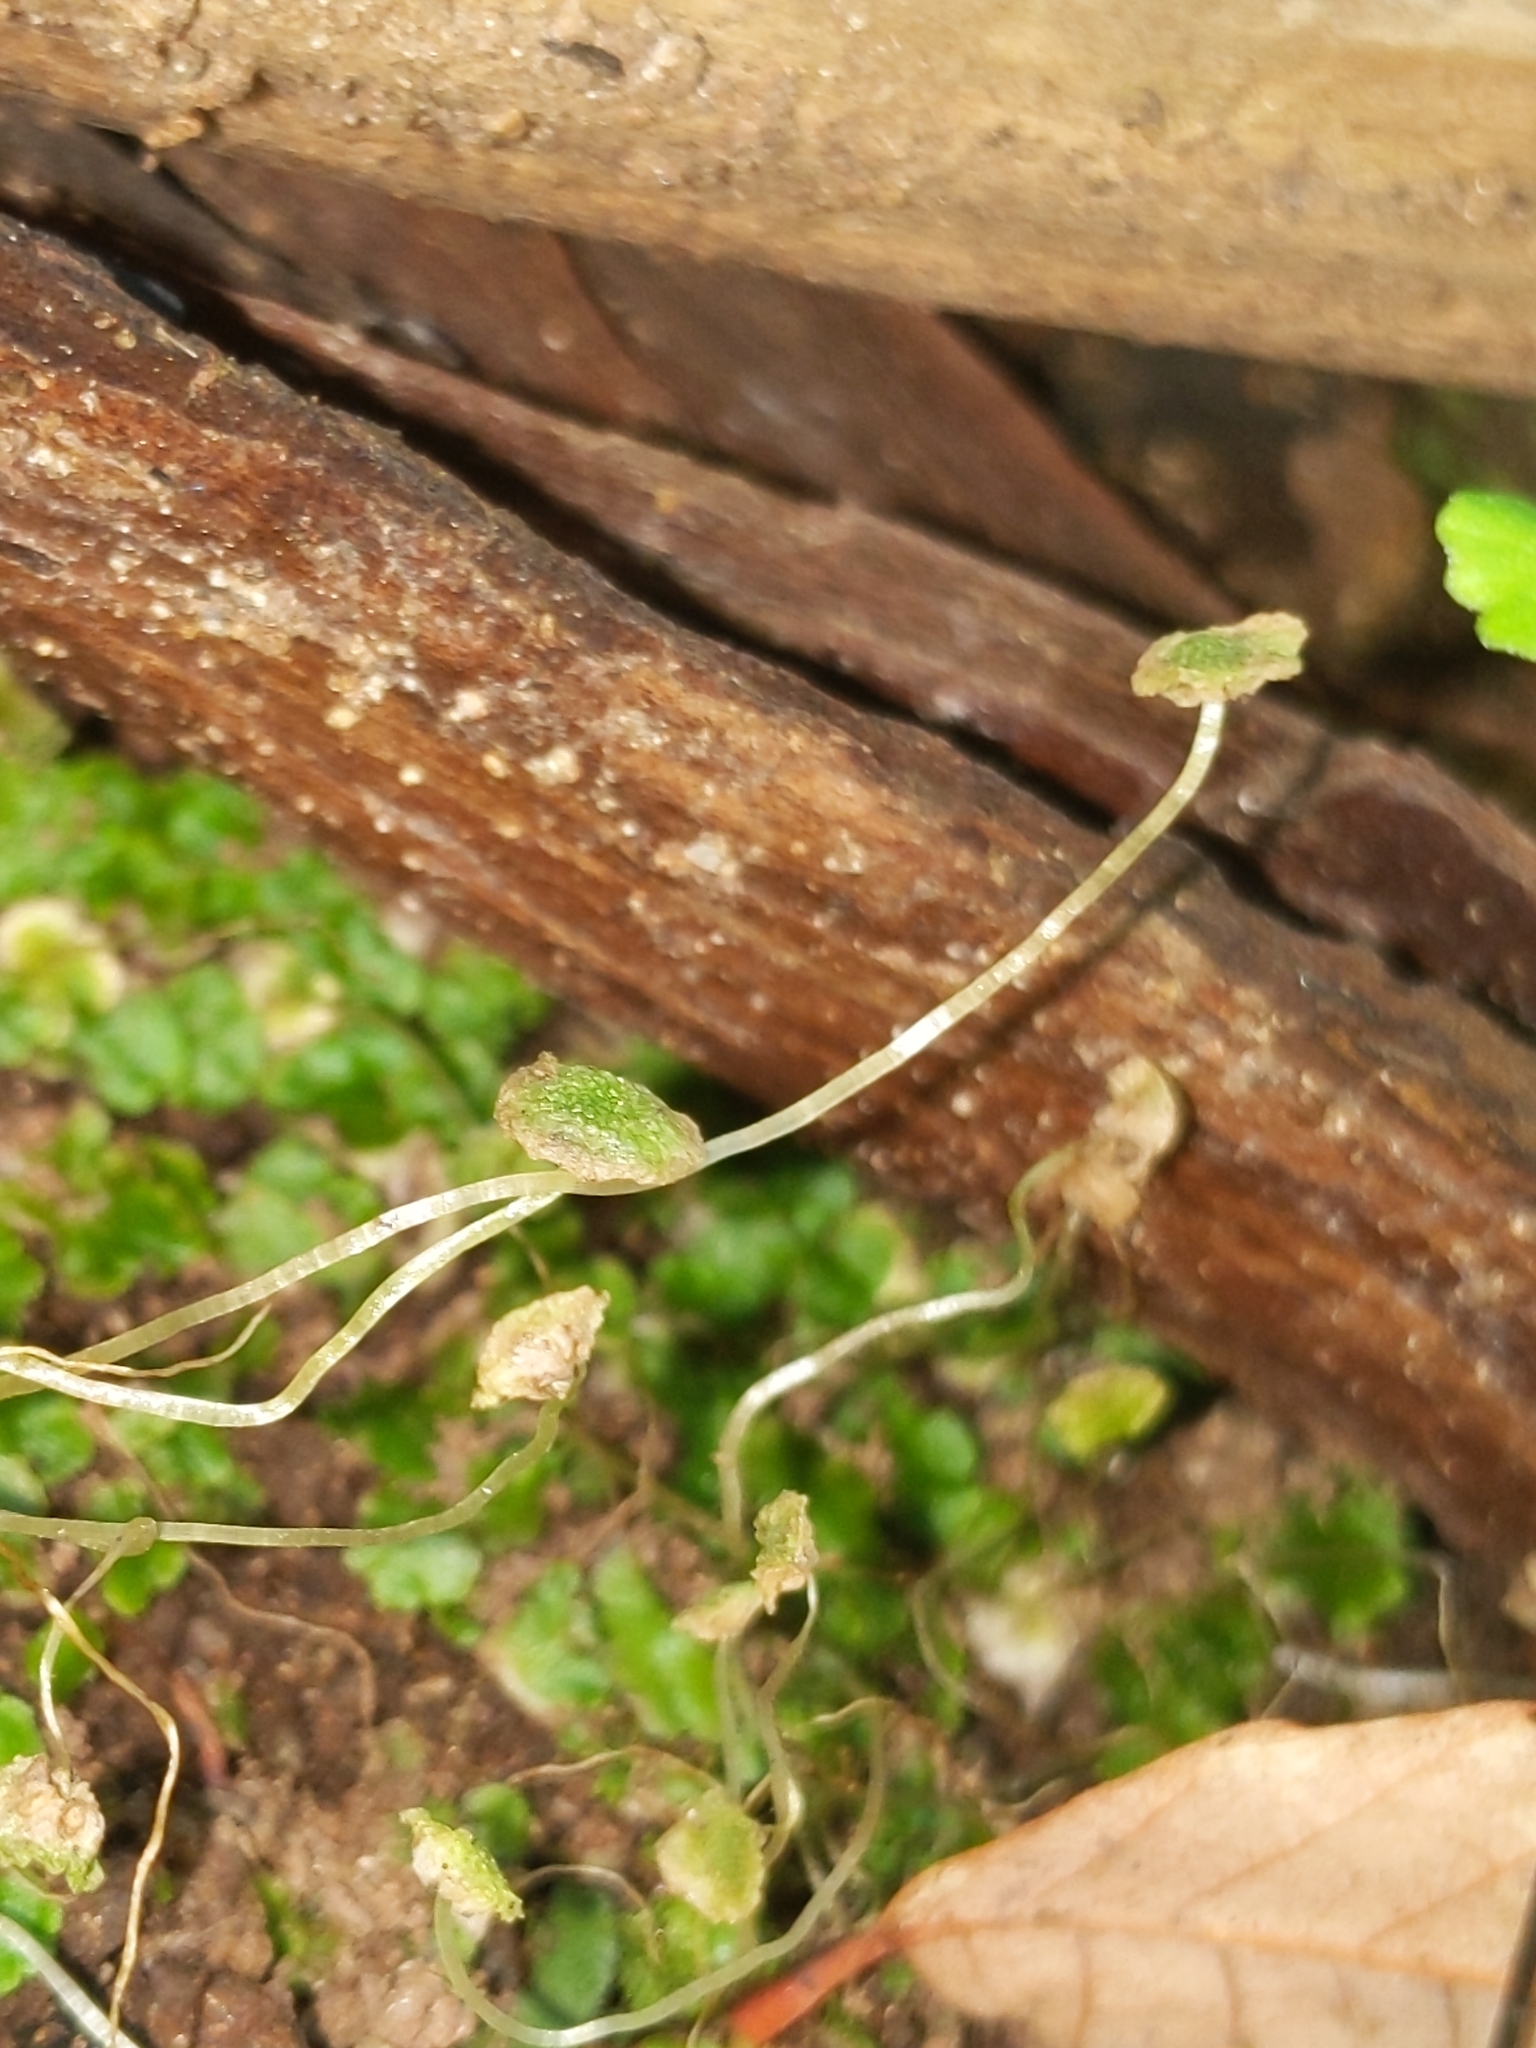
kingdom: Plantae
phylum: Marchantiophyta
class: Marchantiopsida
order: Marchantiales
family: Aytoniaceae
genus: Cryptomitrium
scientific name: Cryptomitrium tenerum
